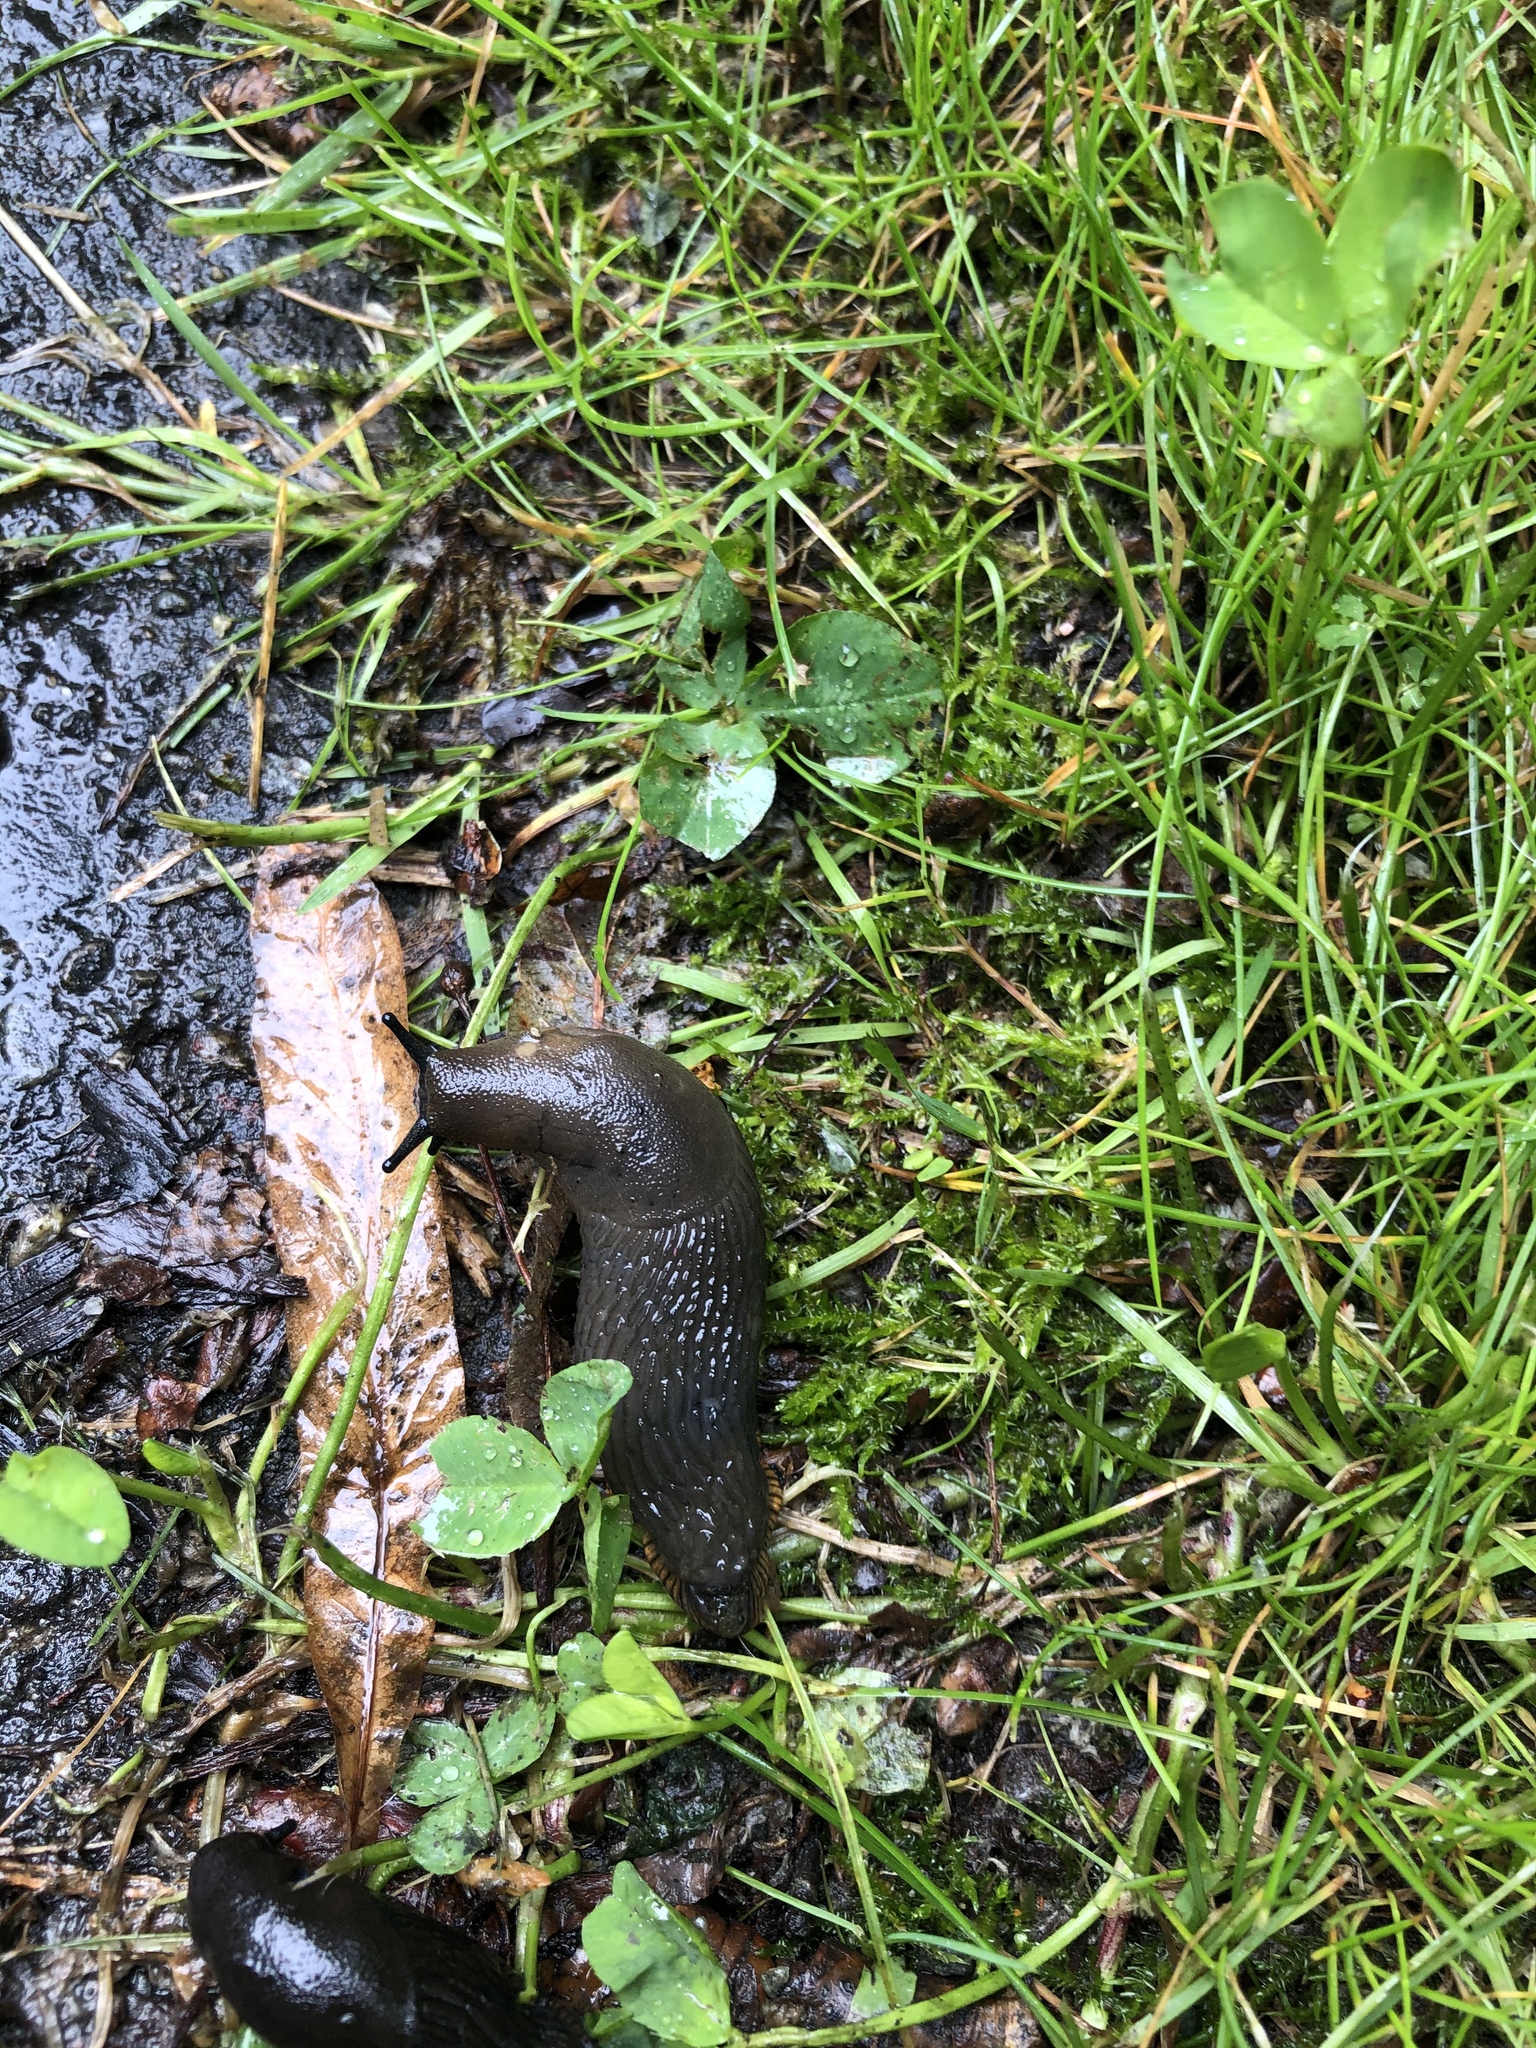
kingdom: Animalia
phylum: Mollusca
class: Gastropoda
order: Stylommatophora
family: Arionidae
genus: Arion
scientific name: Arion rufus
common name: Chocolate arion
